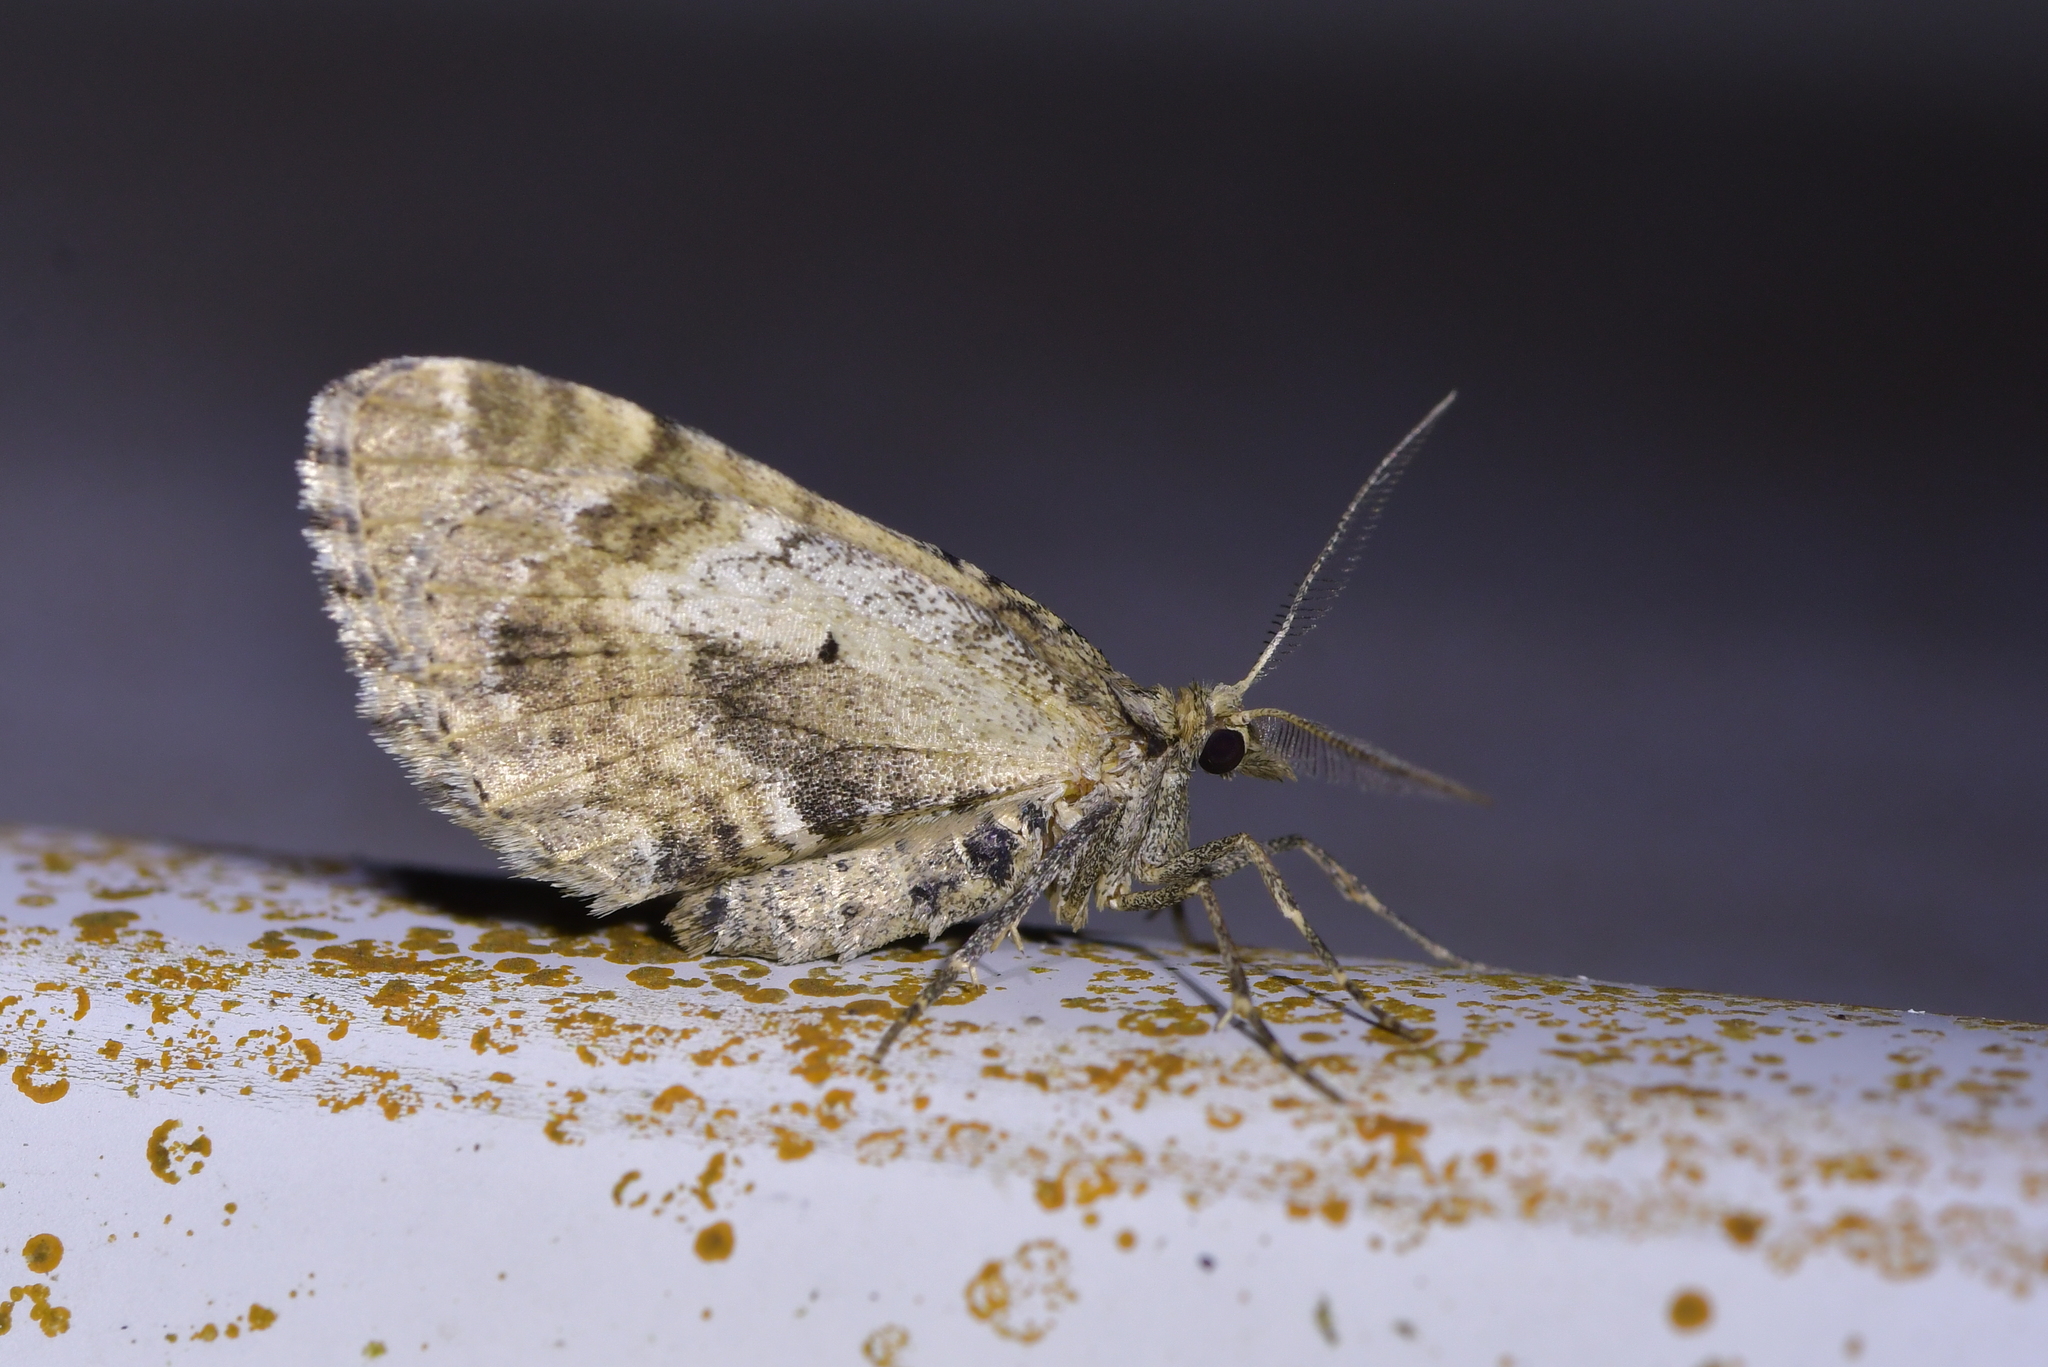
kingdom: Animalia
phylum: Arthropoda
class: Insecta
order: Lepidoptera
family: Geometridae
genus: Asaphodes
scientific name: Asaphodes aegrota
